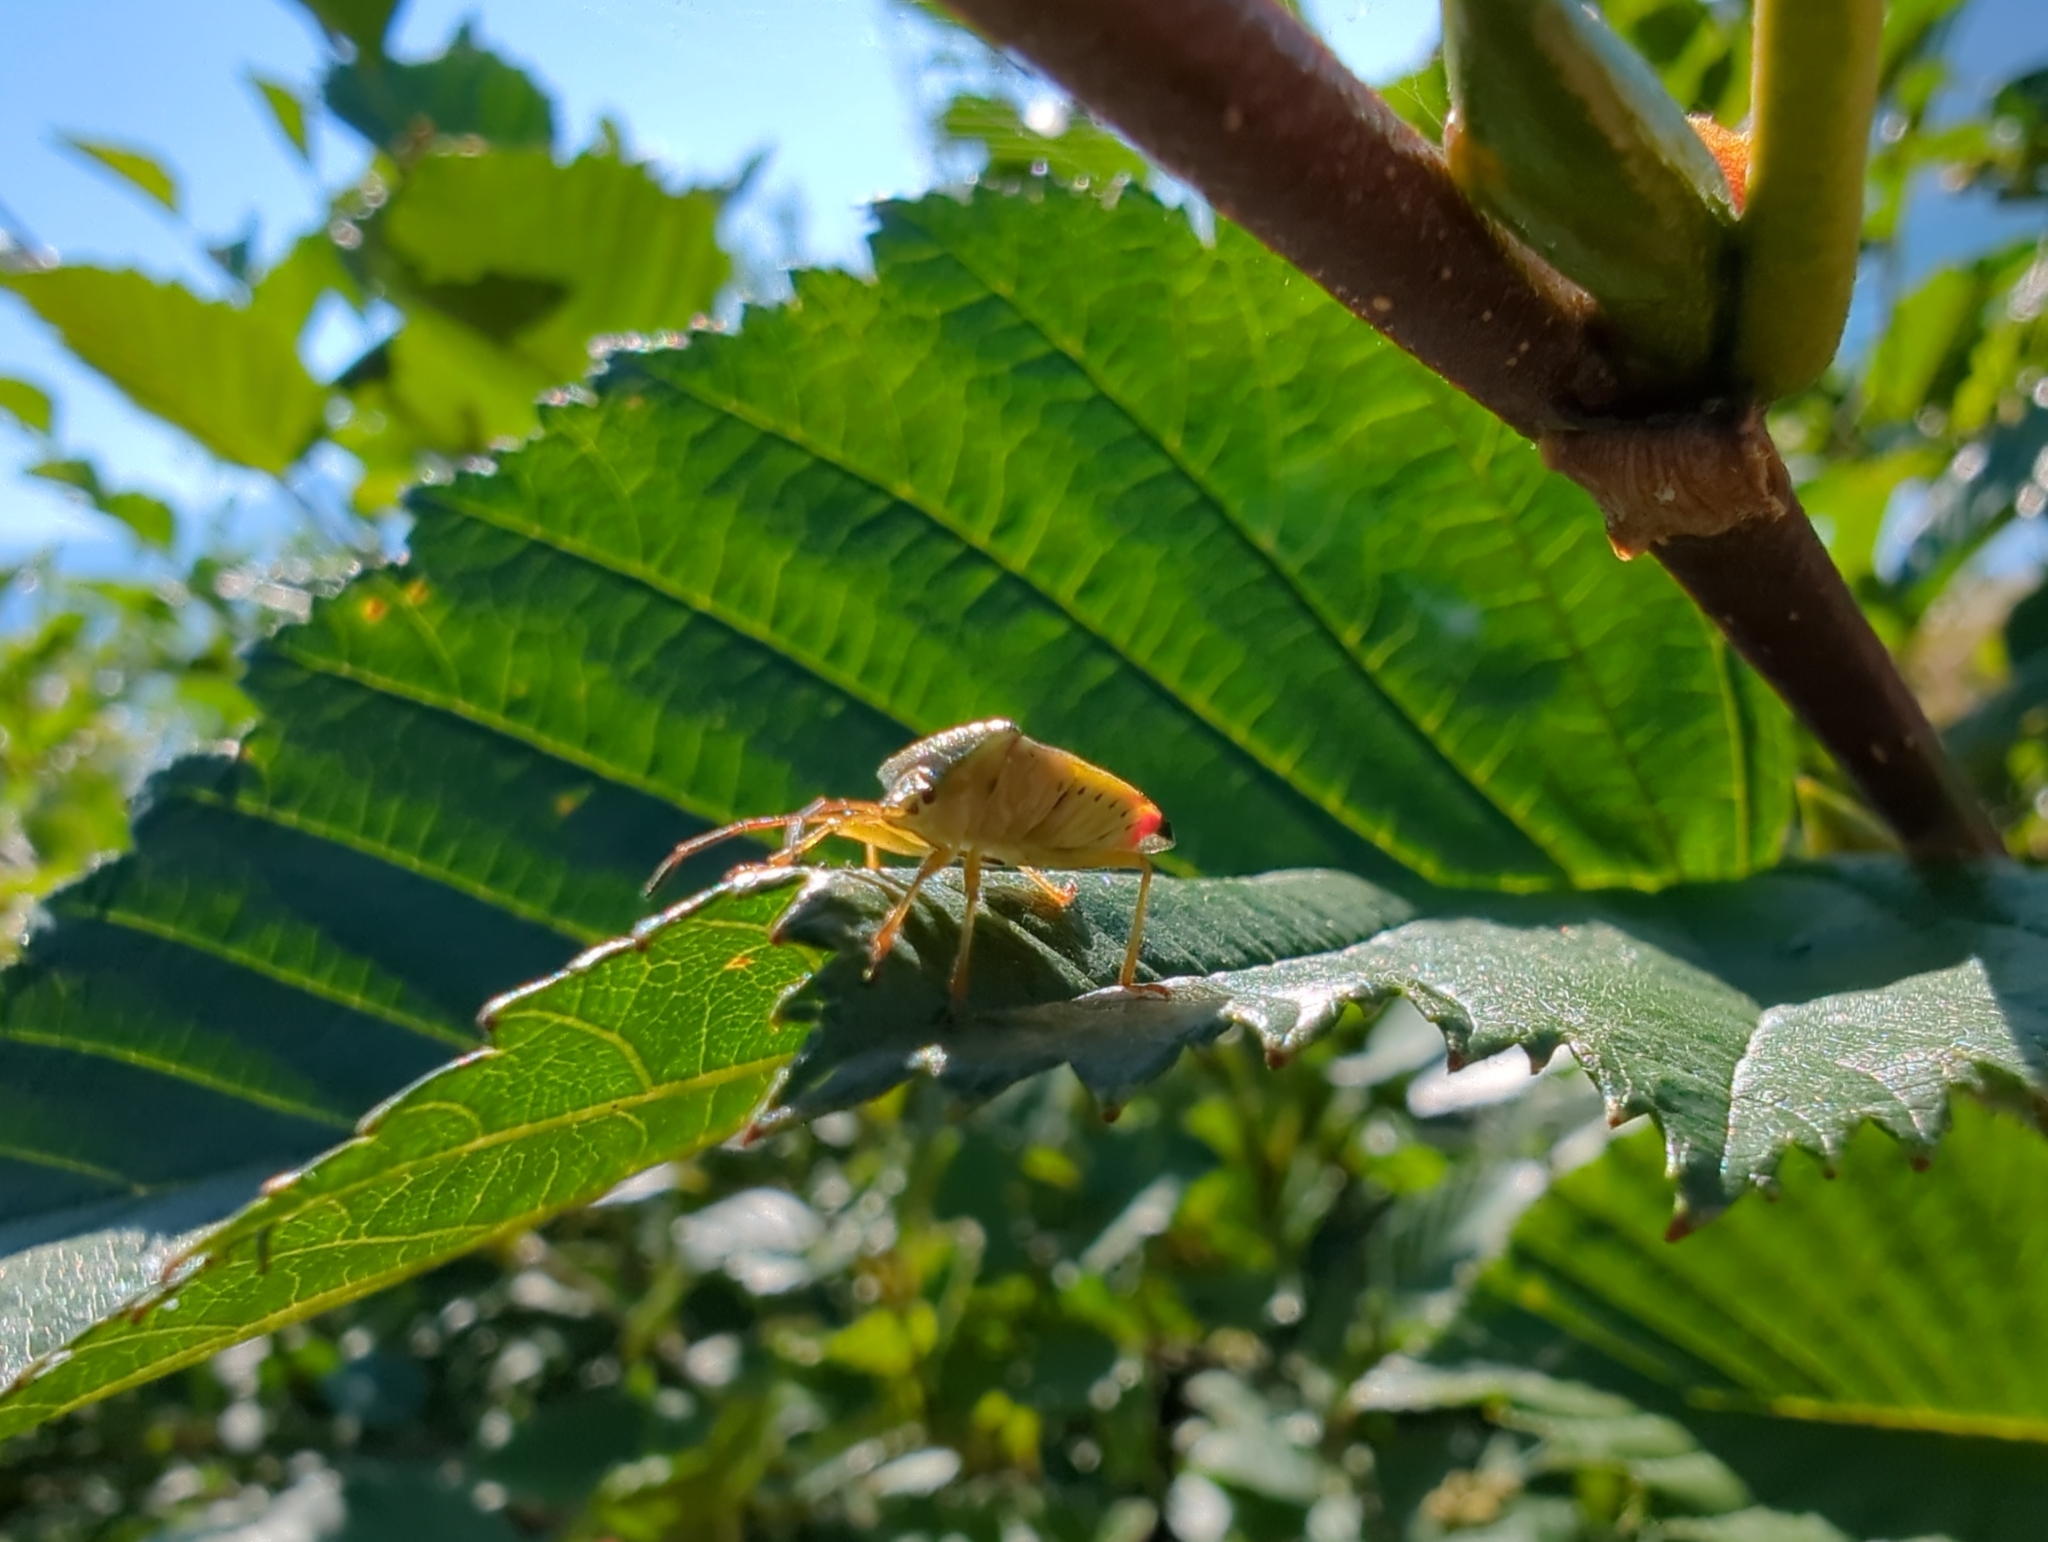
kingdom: Animalia
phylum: Arthropoda
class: Insecta
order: Hemiptera
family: Acanthosomatidae
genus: Elasmostethus
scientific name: Elasmostethus interstinctus
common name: Birch shieldbug
